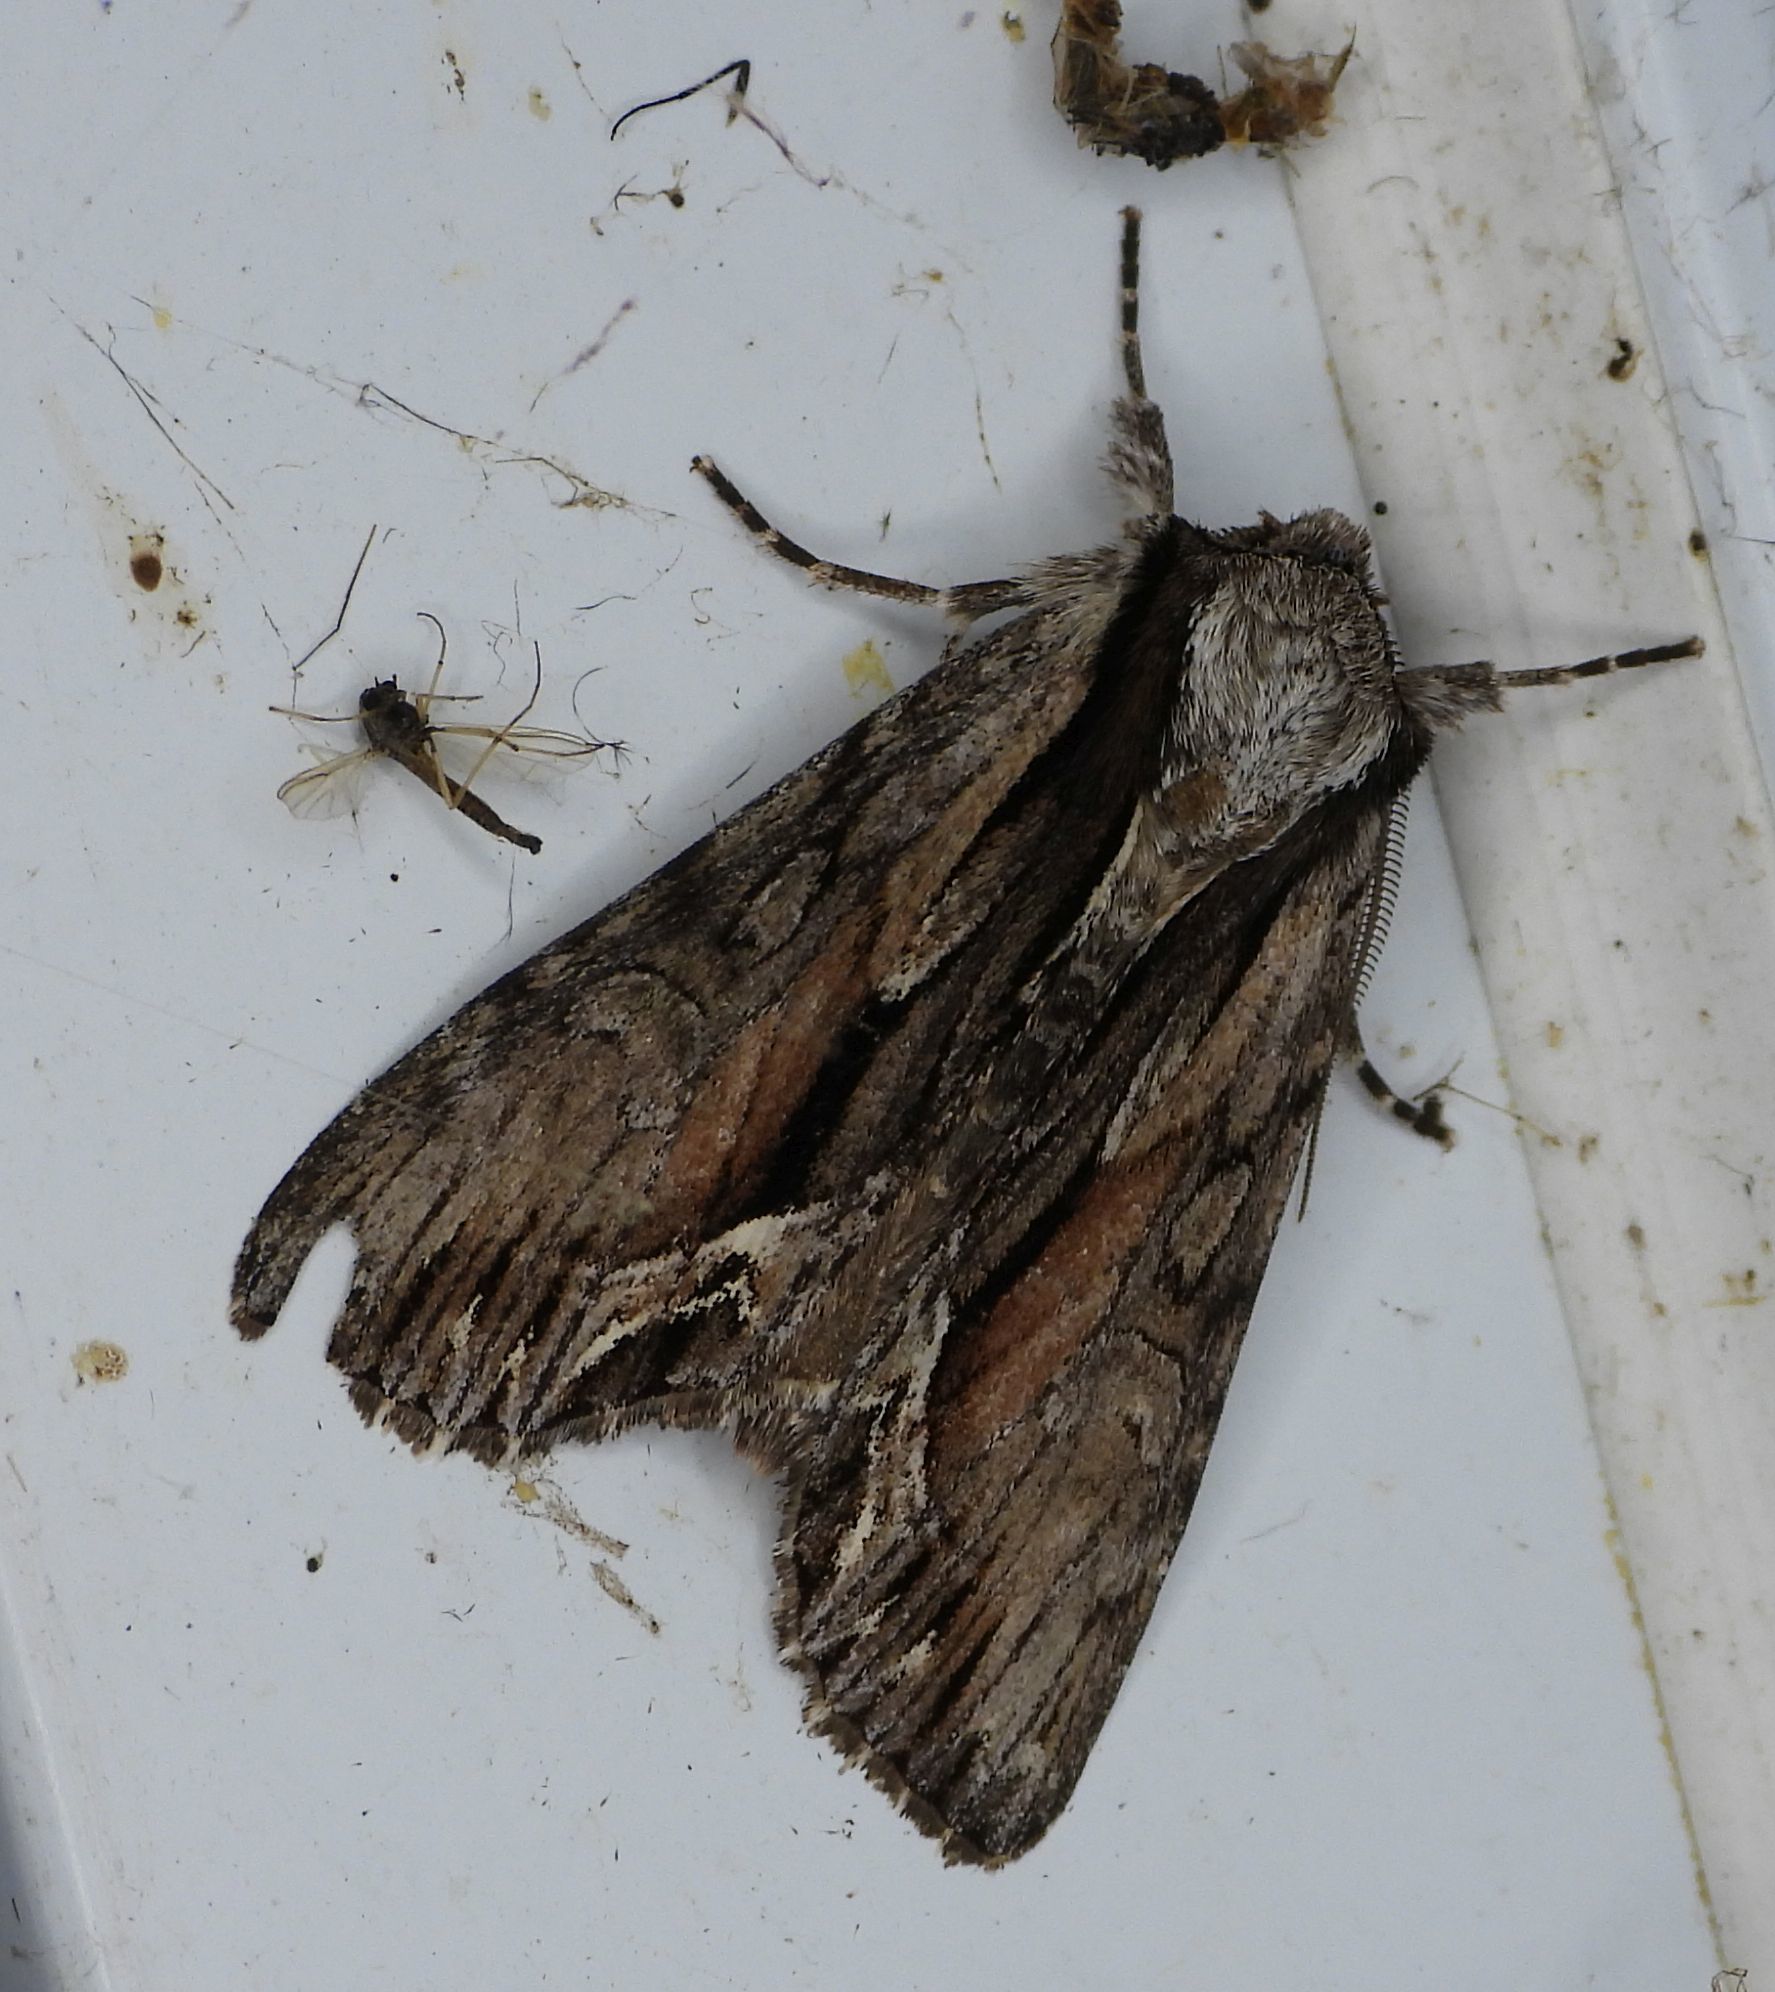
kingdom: Animalia
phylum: Arthropoda
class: Insecta
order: Lepidoptera
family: Noctuidae
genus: Hyppa
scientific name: Hyppa xylinoides
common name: Common hyppa moth
